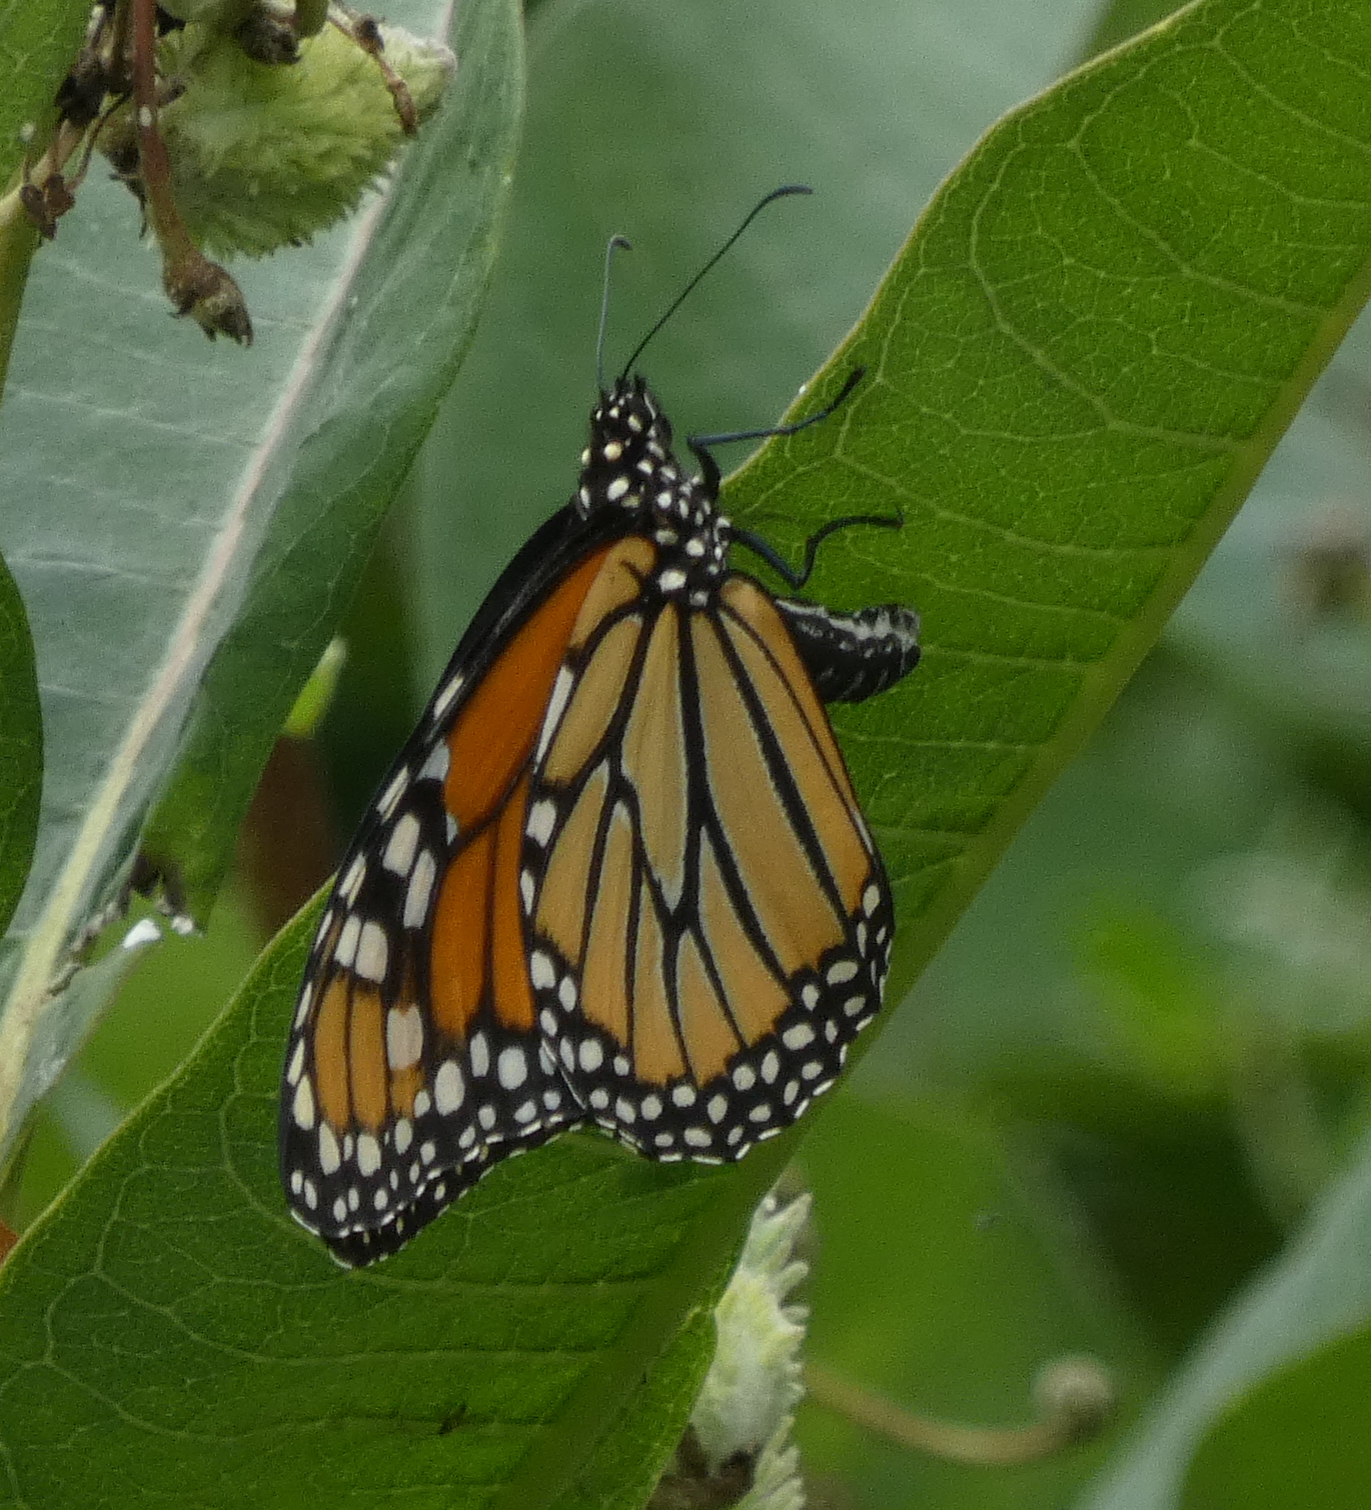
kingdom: Animalia
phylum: Arthropoda
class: Insecta
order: Lepidoptera
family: Nymphalidae
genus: Danaus
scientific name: Danaus plexippus
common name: Monarch
